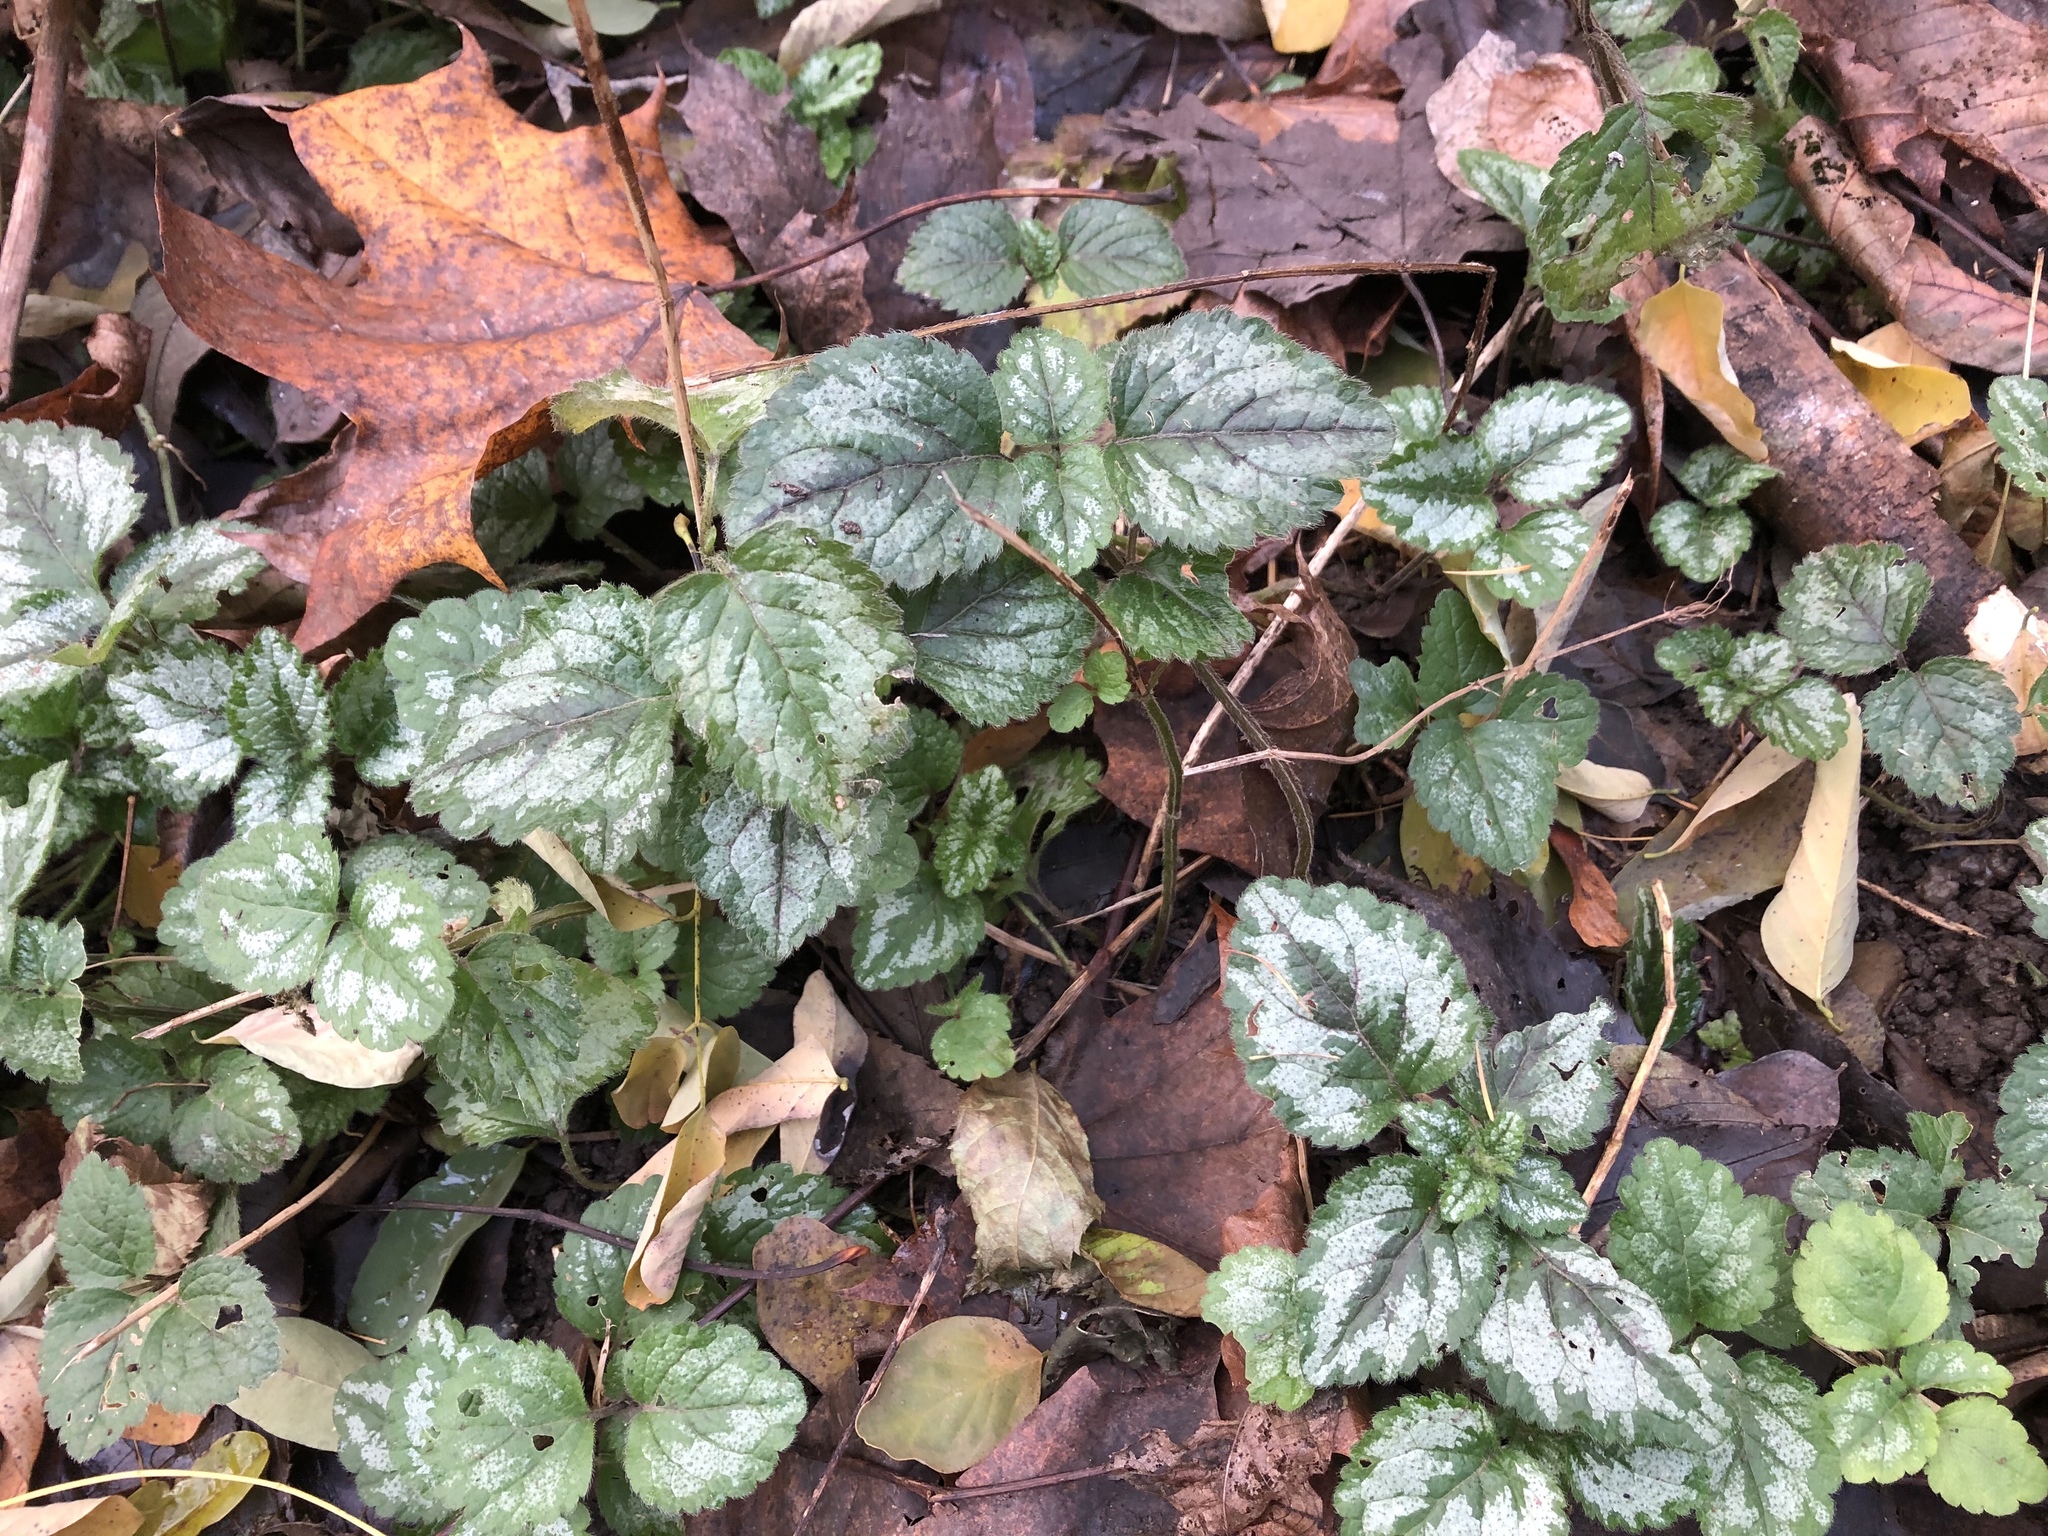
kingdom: Plantae
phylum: Tracheophyta
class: Magnoliopsida
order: Lamiales
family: Lamiaceae
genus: Lamium
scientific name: Lamium galeobdolon
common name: Yellow archangel
